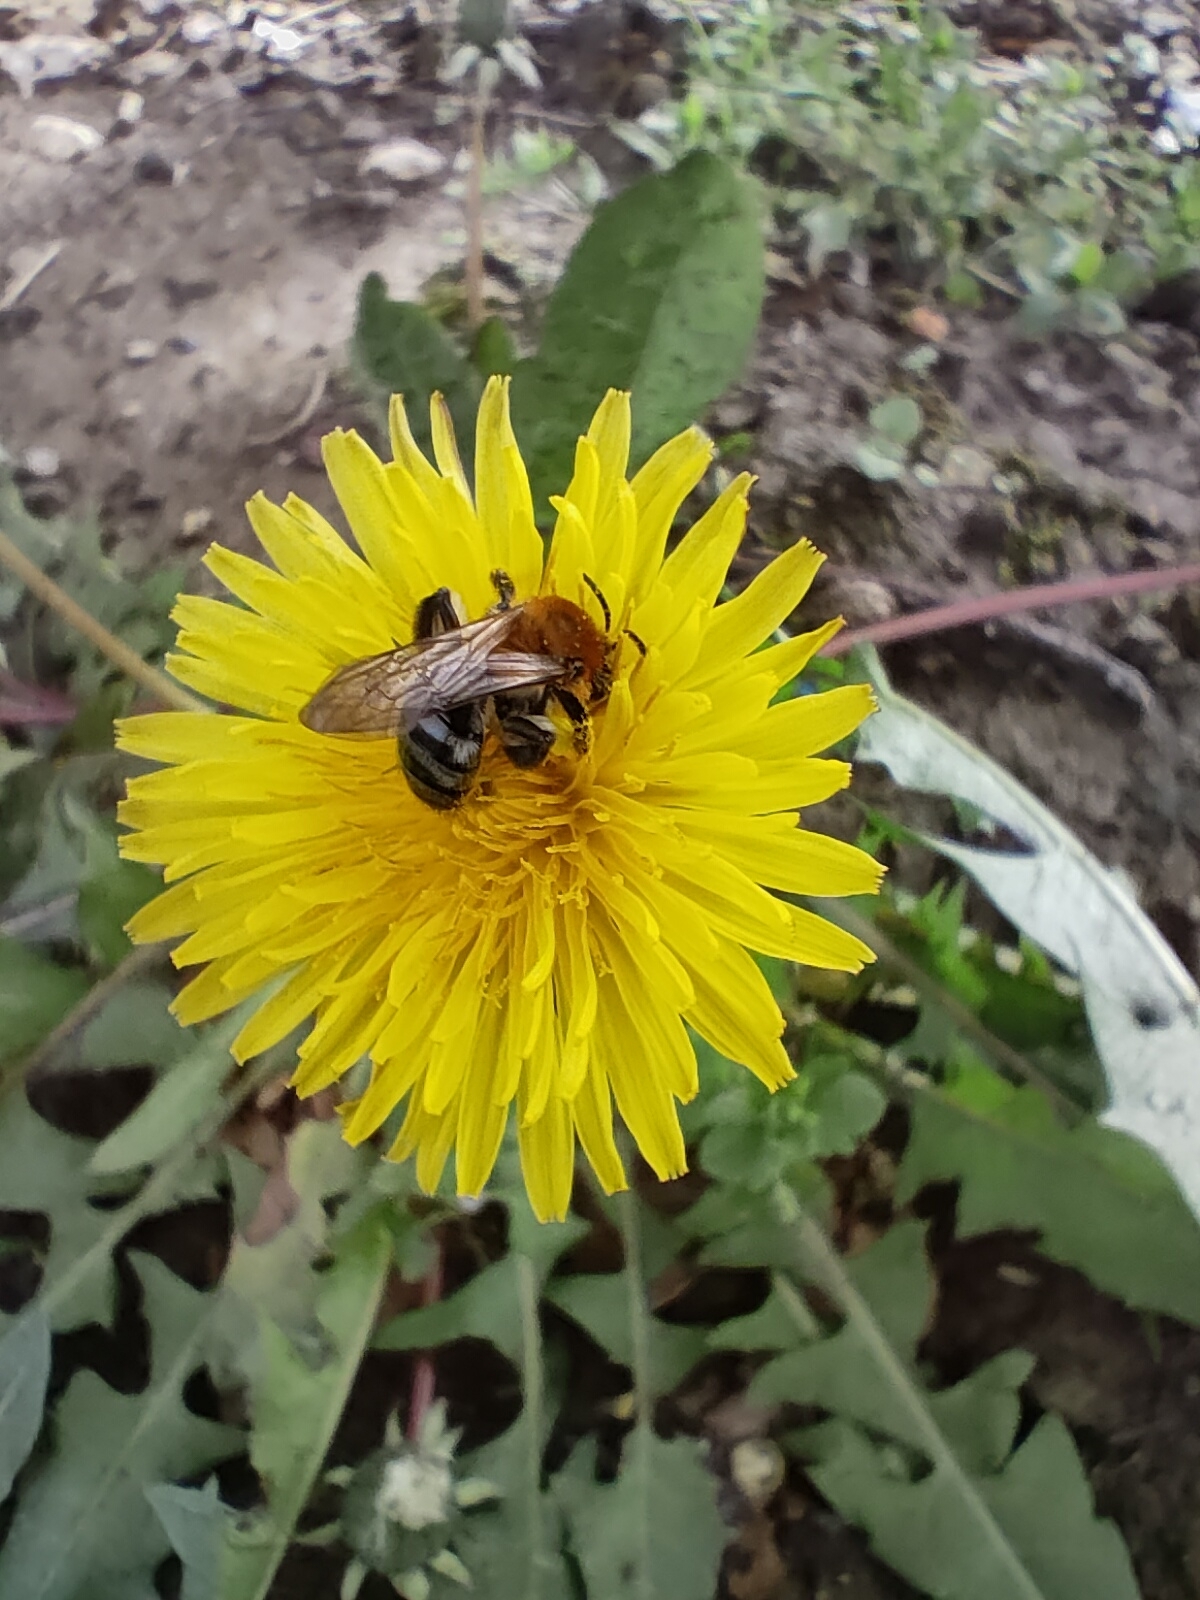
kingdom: Animalia
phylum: Arthropoda
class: Insecta
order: Hymenoptera
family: Andrenidae
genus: Andrena
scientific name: Andrena nitida
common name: Grey-patched mining bee
